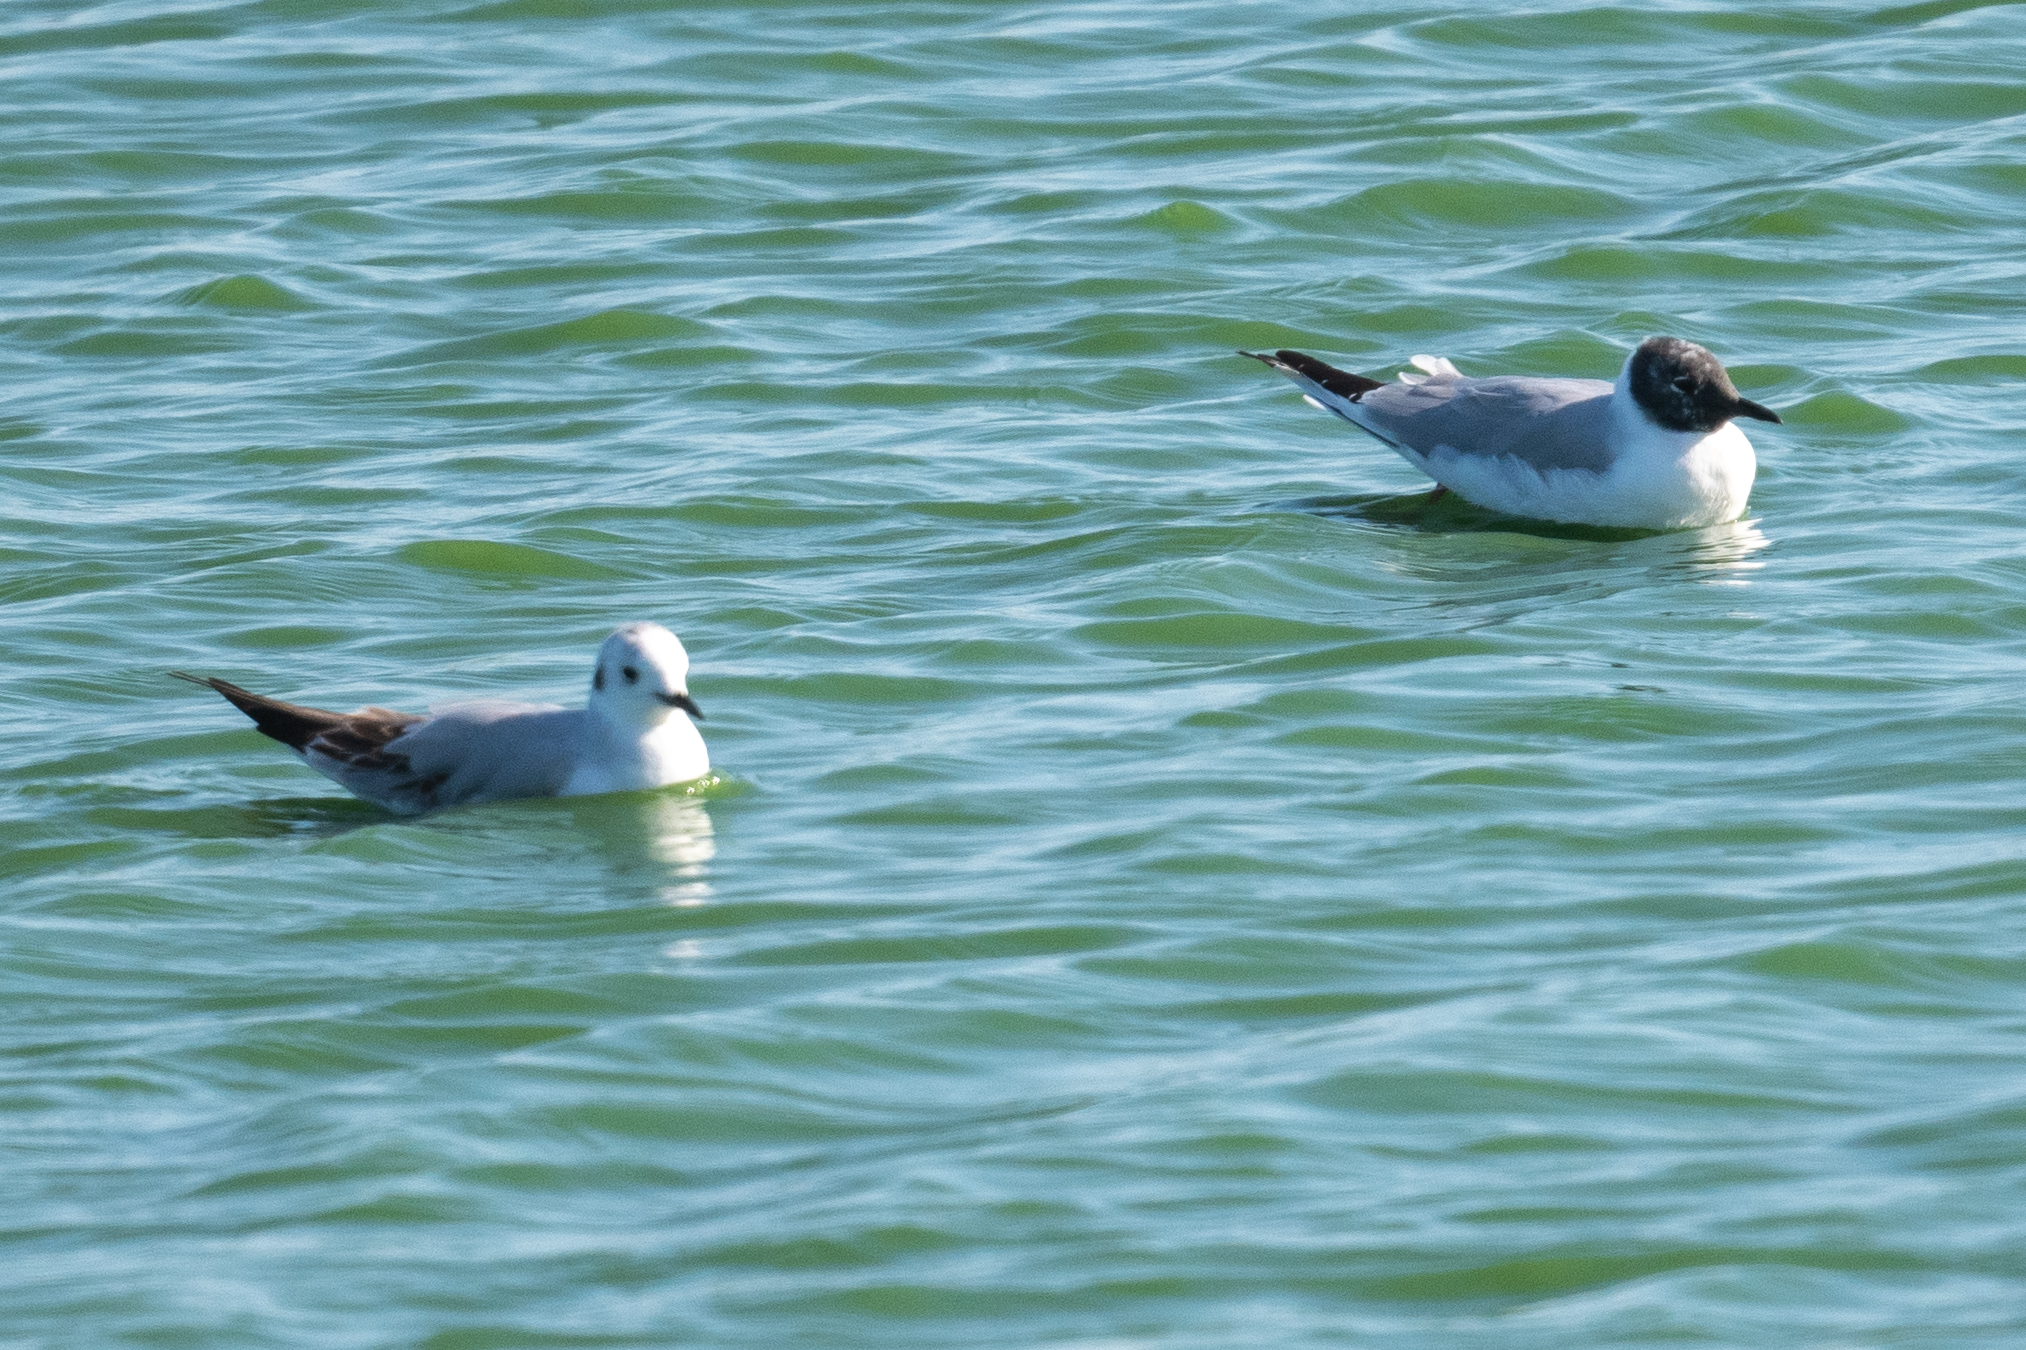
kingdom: Animalia
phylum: Chordata
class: Aves
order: Charadriiformes
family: Laridae
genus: Chroicocephalus
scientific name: Chroicocephalus philadelphia
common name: Bonaparte's gull
